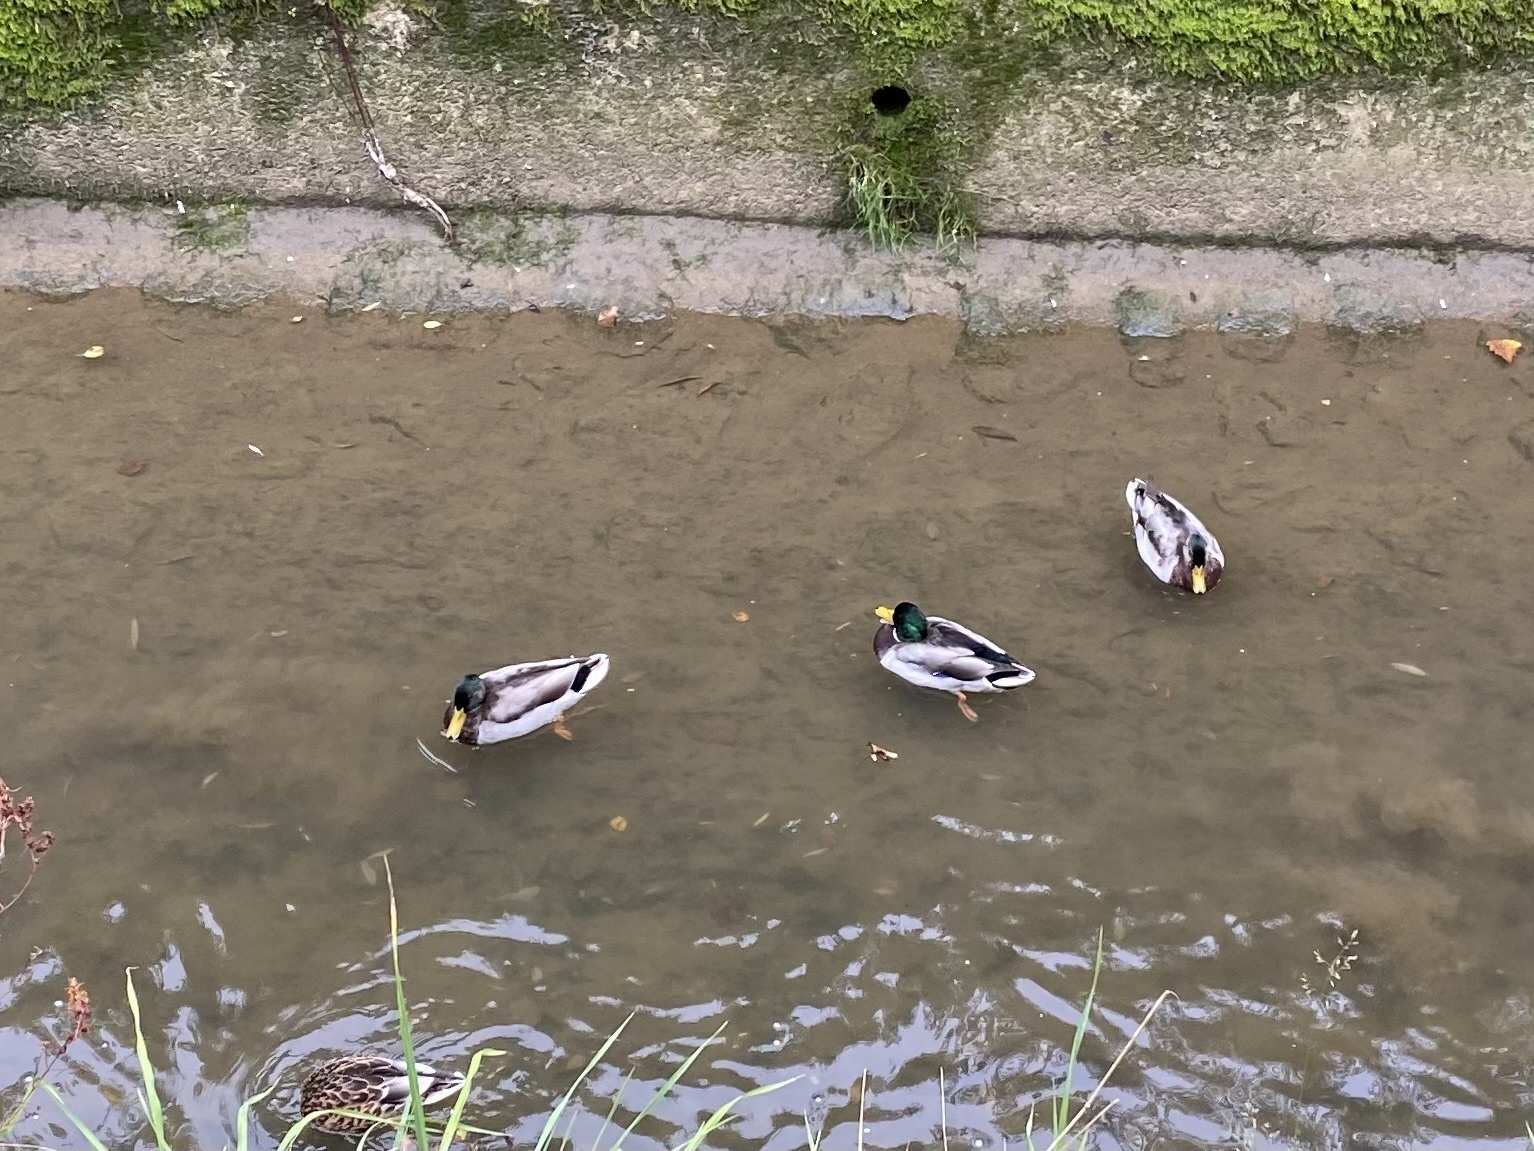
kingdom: Animalia
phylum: Chordata
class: Aves
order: Anseriformes
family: Anatidae
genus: Anas
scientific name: Anas platyrhynchos
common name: Mallard
